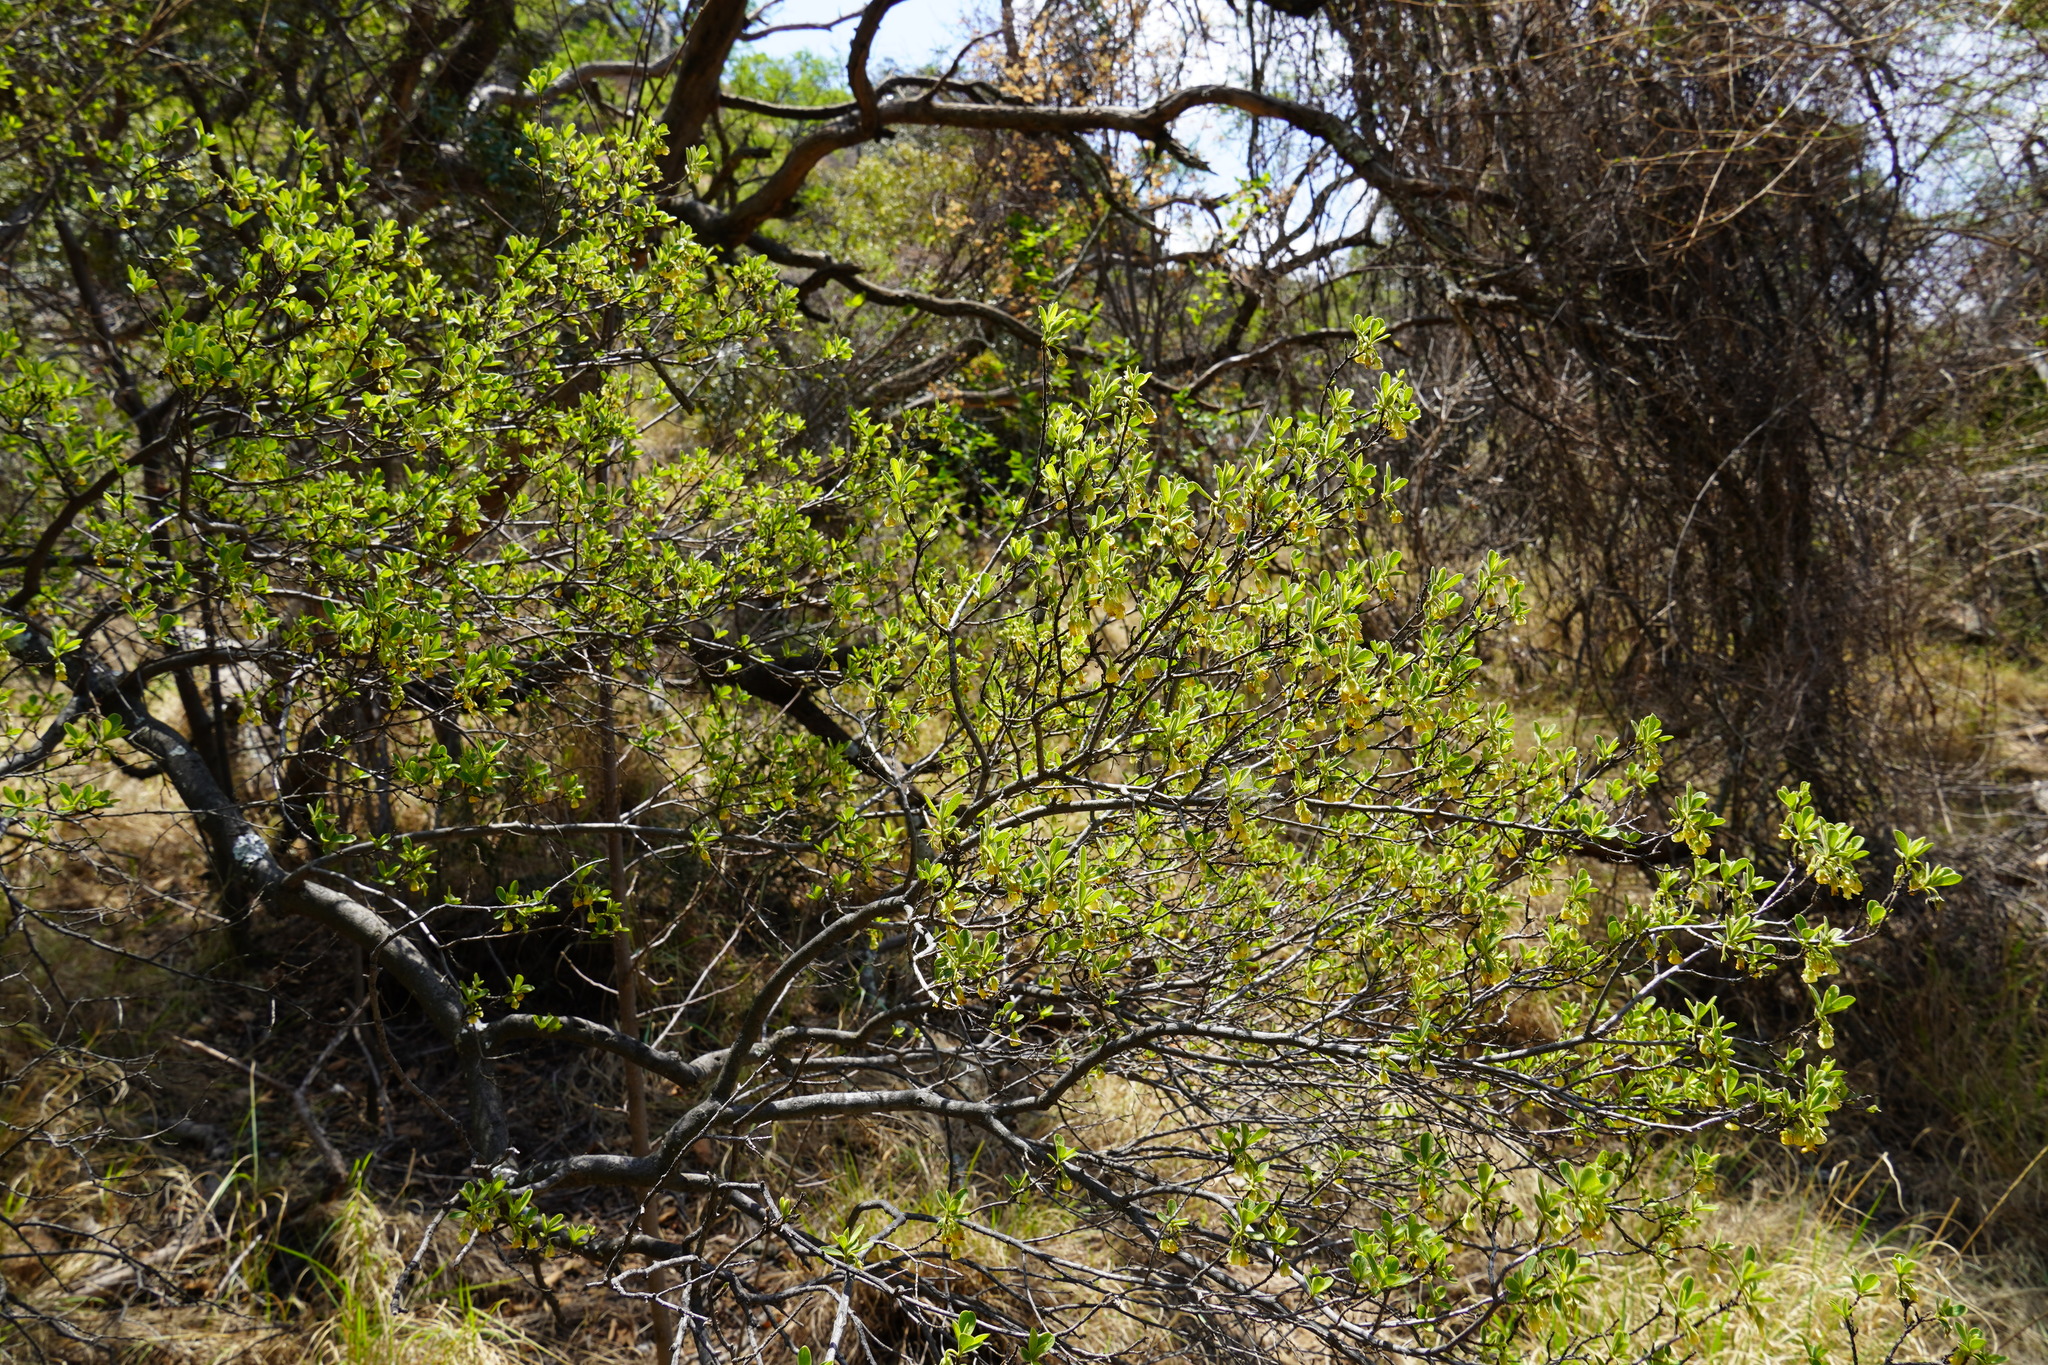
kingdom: Plantae
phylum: Tracheophyta
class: Magnoliopsida
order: Ericales
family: Ebenaceae
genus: Diospyros
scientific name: Diospyros lycioides
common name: Red star apple
